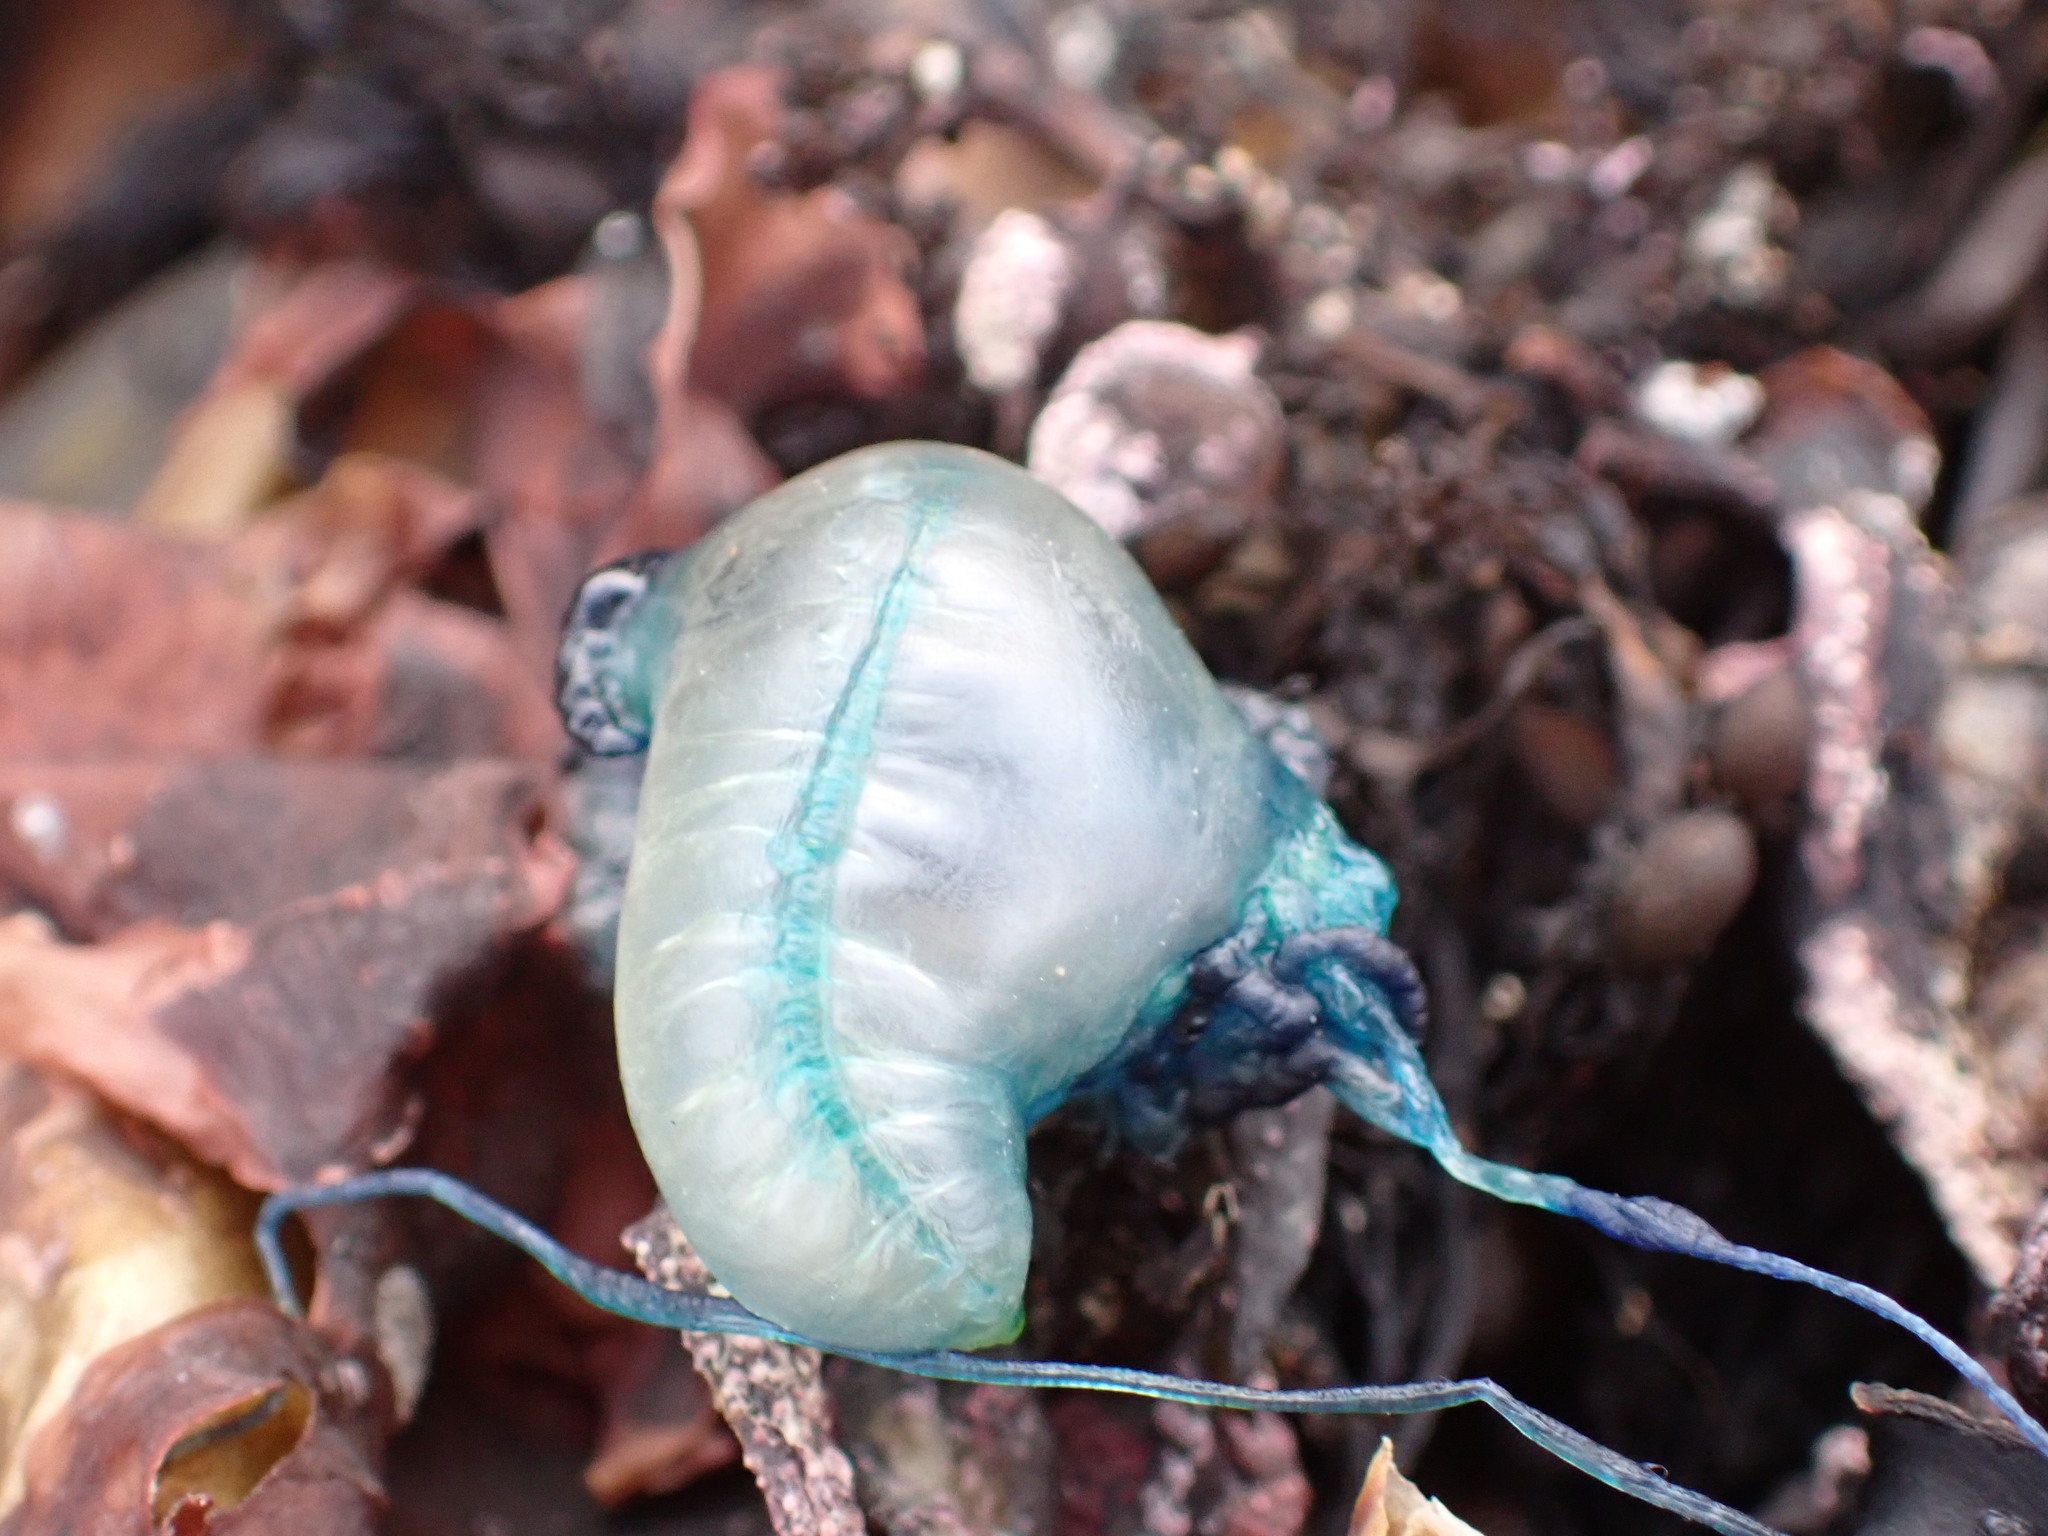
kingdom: Animalia
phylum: Cnidaria
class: Hydrozoa
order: Siphonophorae
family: Physaliidae
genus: Physalia
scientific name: Physalia physalis
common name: Portuguese man-of-war
